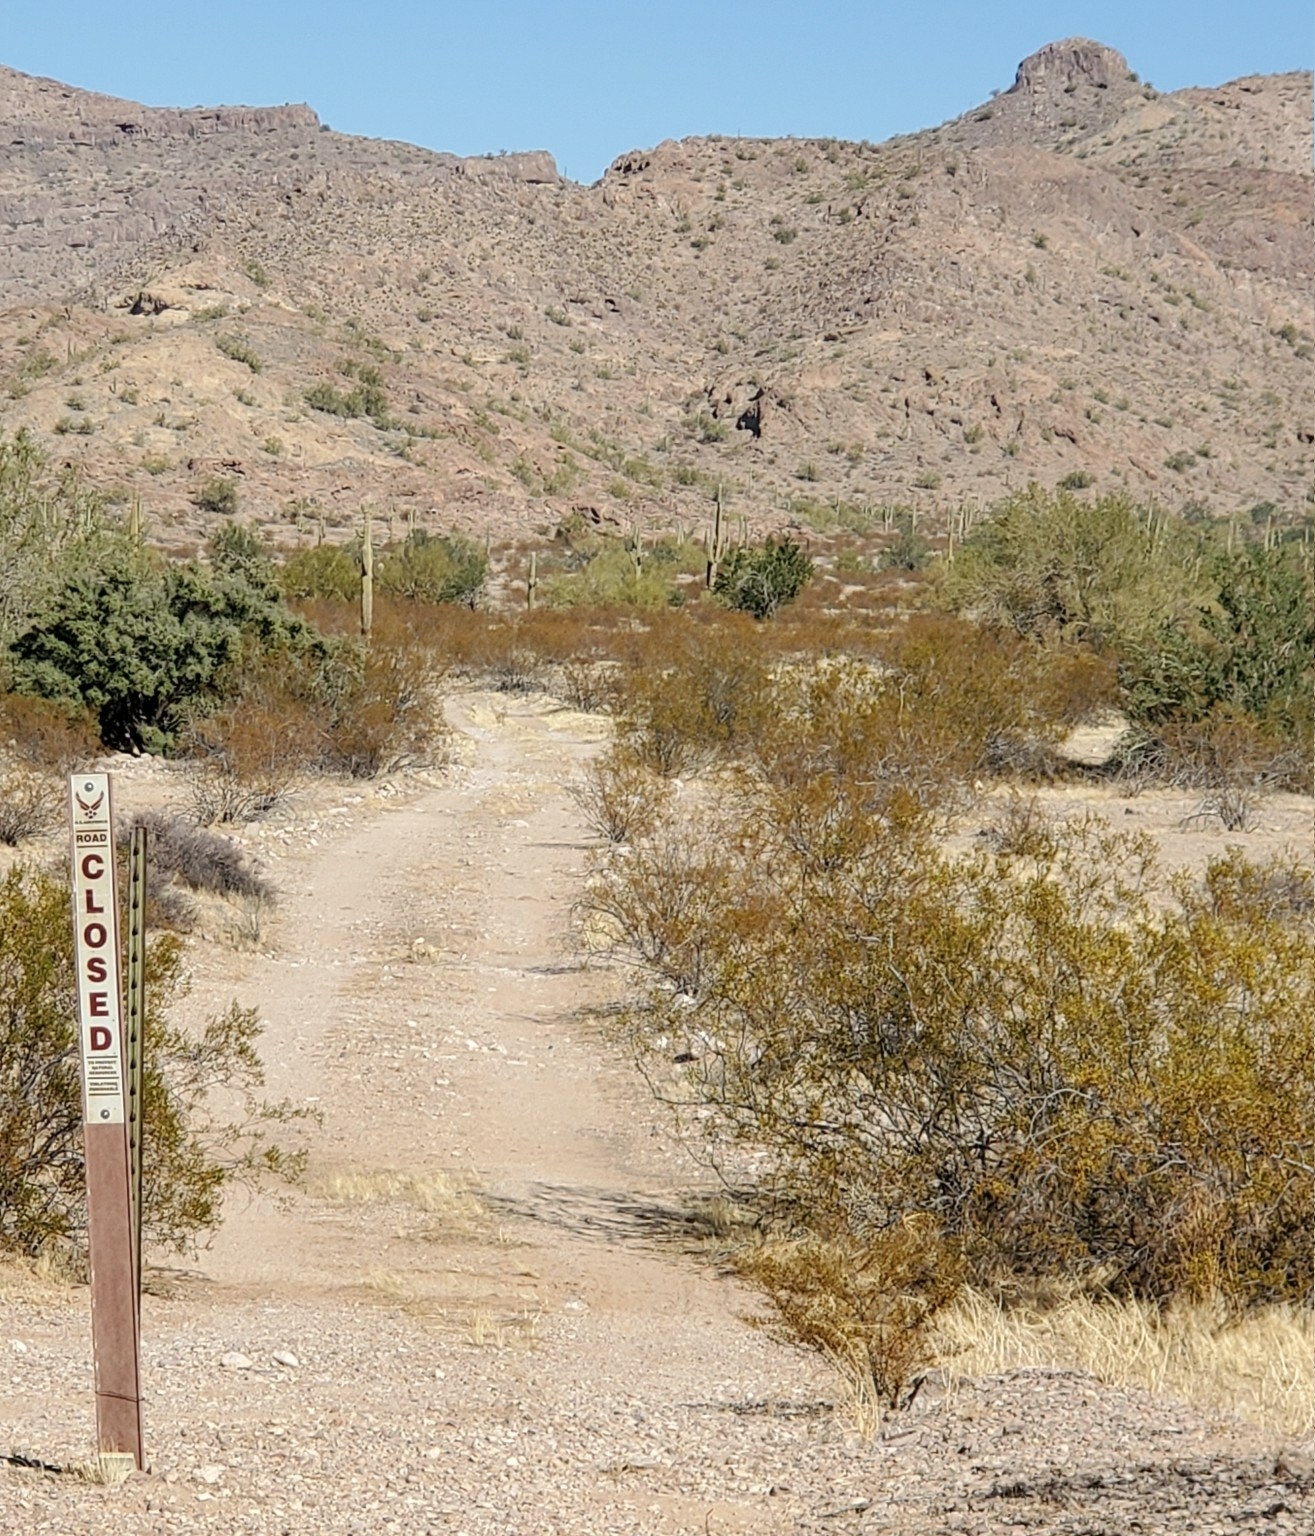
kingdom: Plantae
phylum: Tracheophyta
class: Magnoliopsida
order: Zygophyllales
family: Zygophyllaceae
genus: Larrea
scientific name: Larrea tridentata
